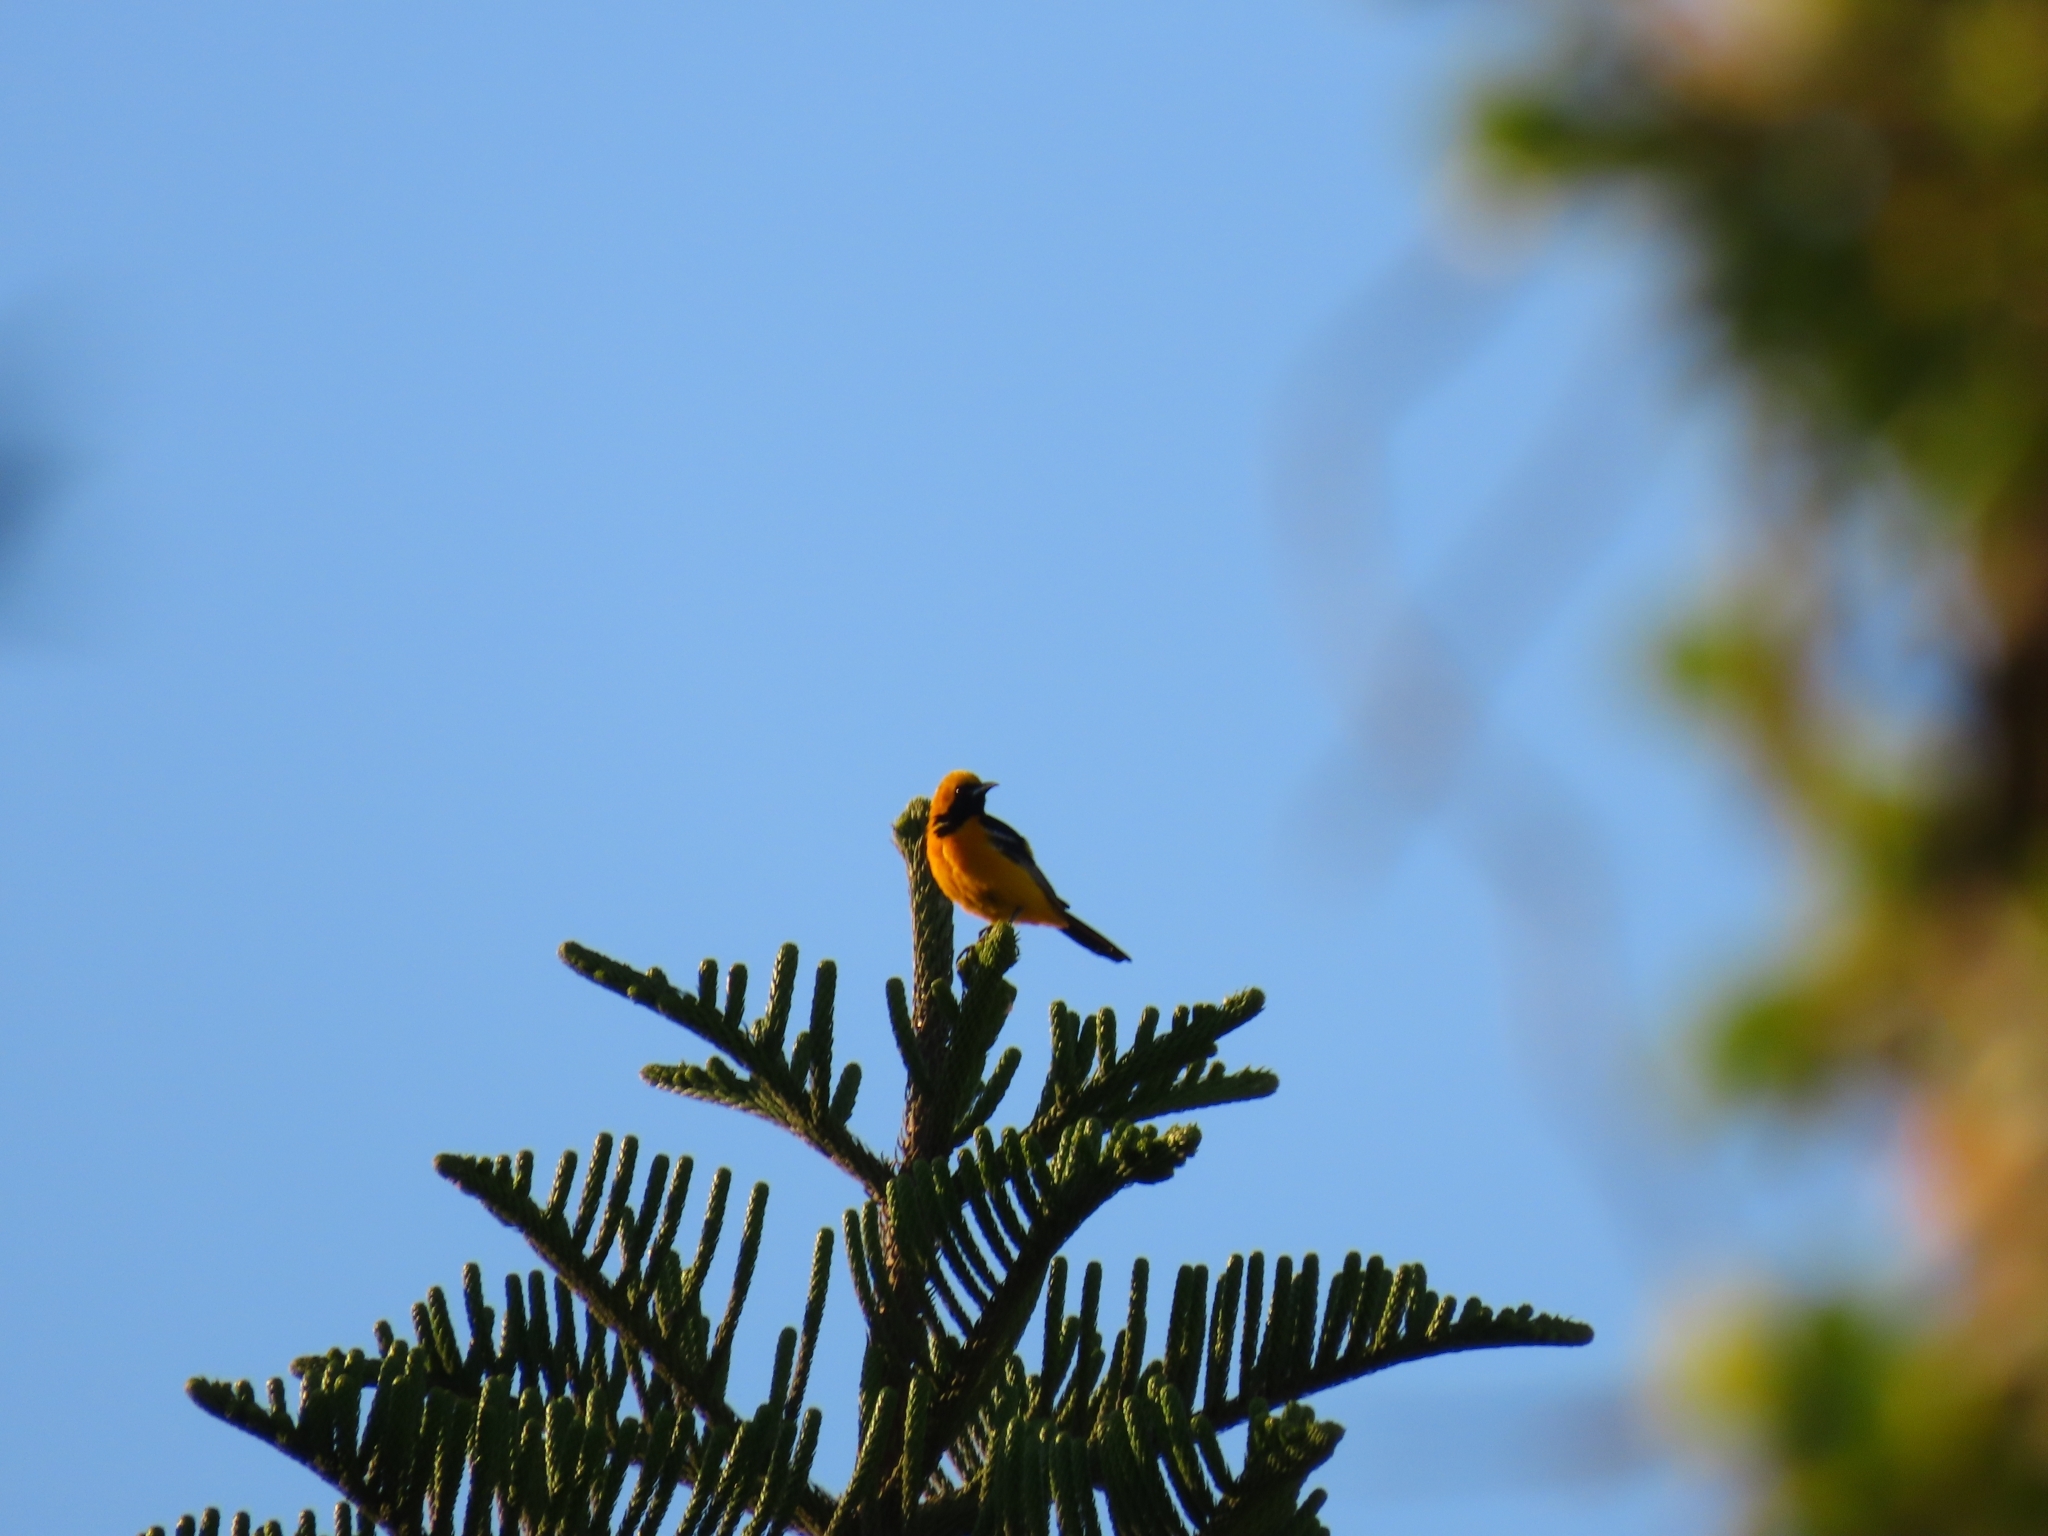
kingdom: Animalia
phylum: Chordata
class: Aves
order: Passeriformes
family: Icteridae
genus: Icterus
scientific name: Icterus cucullatus
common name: Hooded oriole
